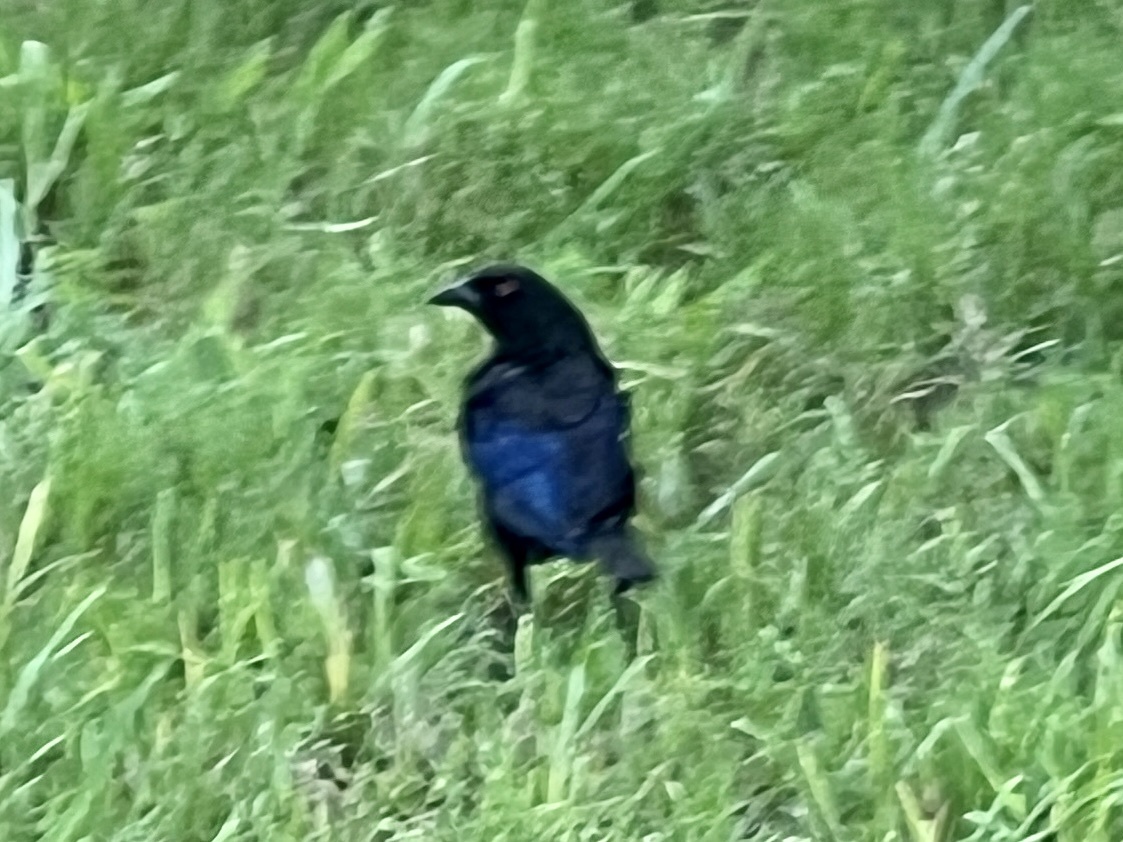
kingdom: Animalia
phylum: Chordata
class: Aves
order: Passeriformes
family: Icteridae
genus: Molothrus
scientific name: Molothrus aeneus
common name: Bronzed cowbird
